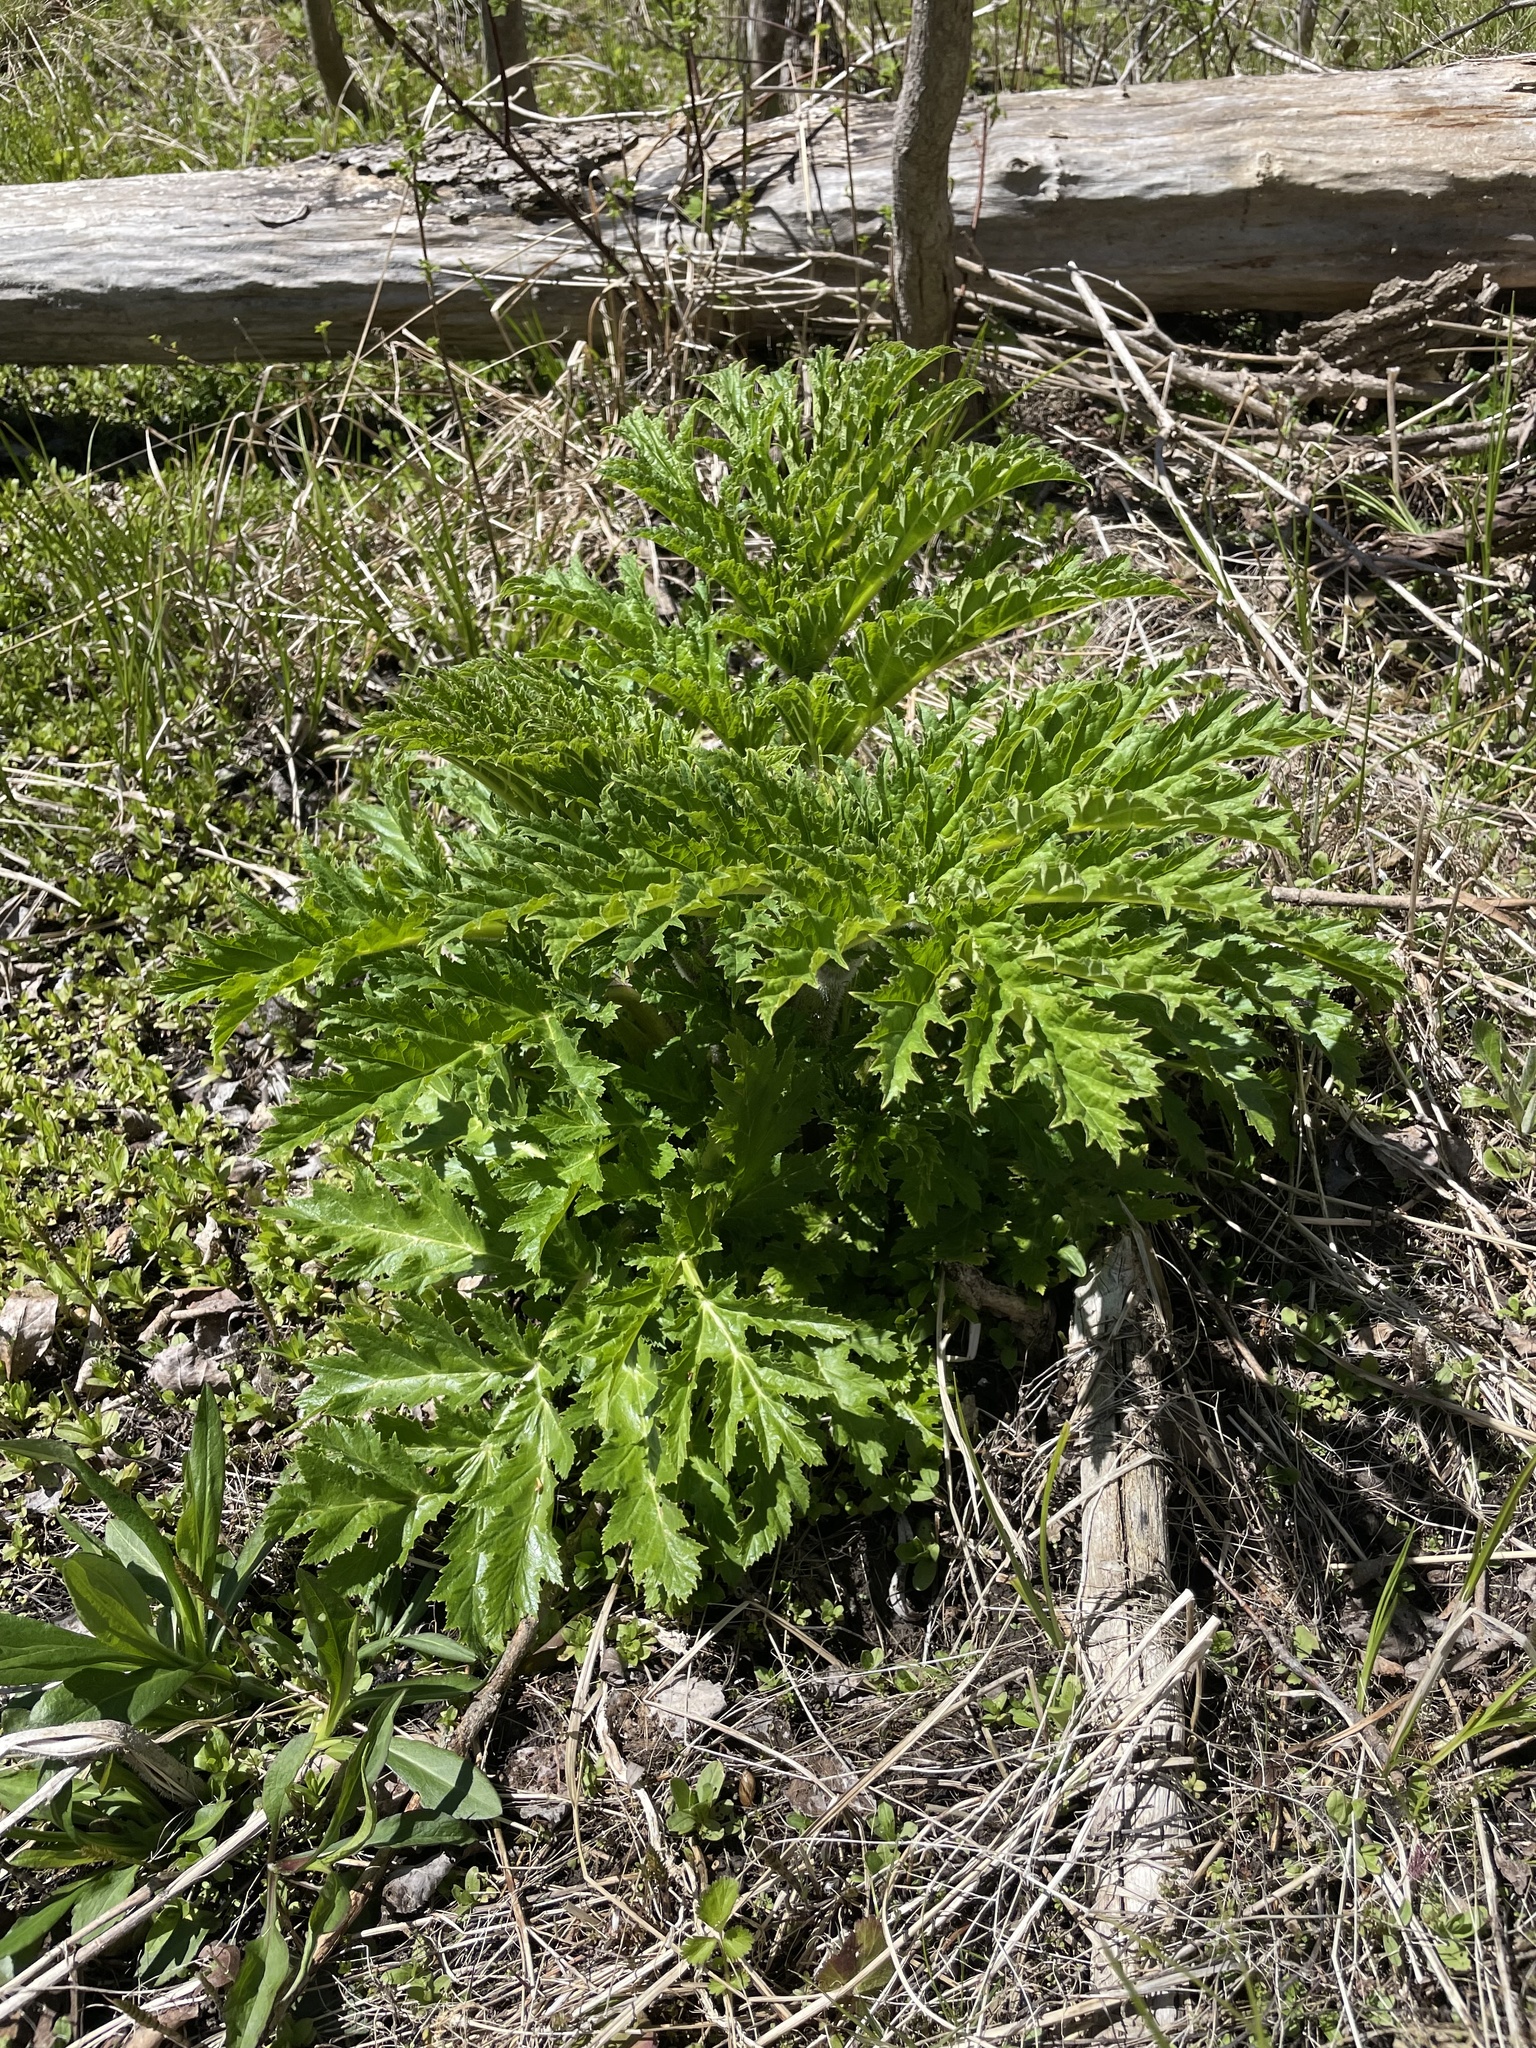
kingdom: Plantae
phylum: Tracheophyta
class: Magnoliopsida
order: Apiales
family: Apiaceae
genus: Heracleum
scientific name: Heracleum mantegazzianum
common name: Giant hogweed
